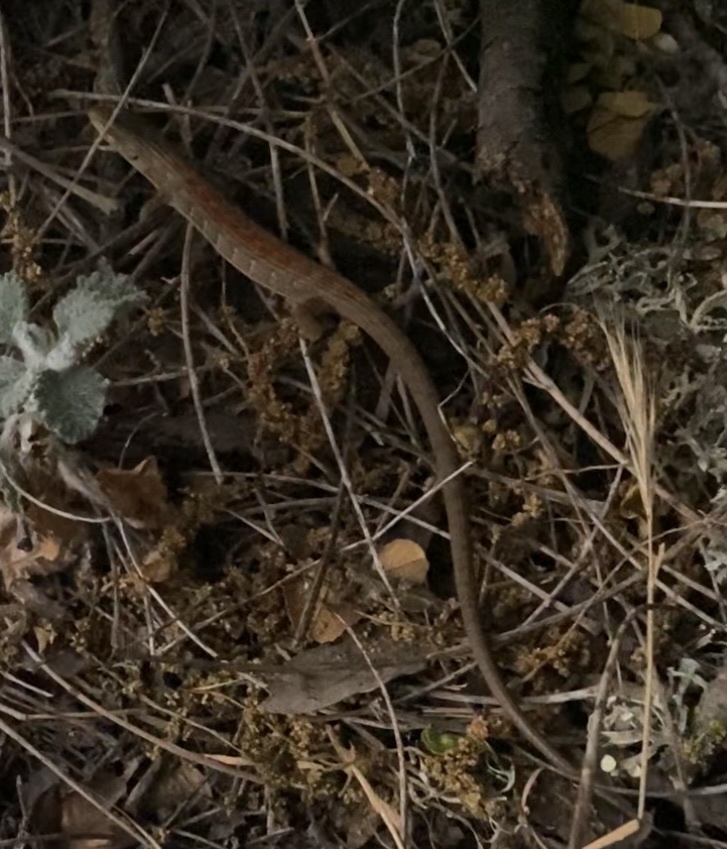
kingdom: Animalia
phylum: Chordata
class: Squamata
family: Anguidae
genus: Elgaria
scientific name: Elgaria multicarinata
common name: Southern alligator lizard
